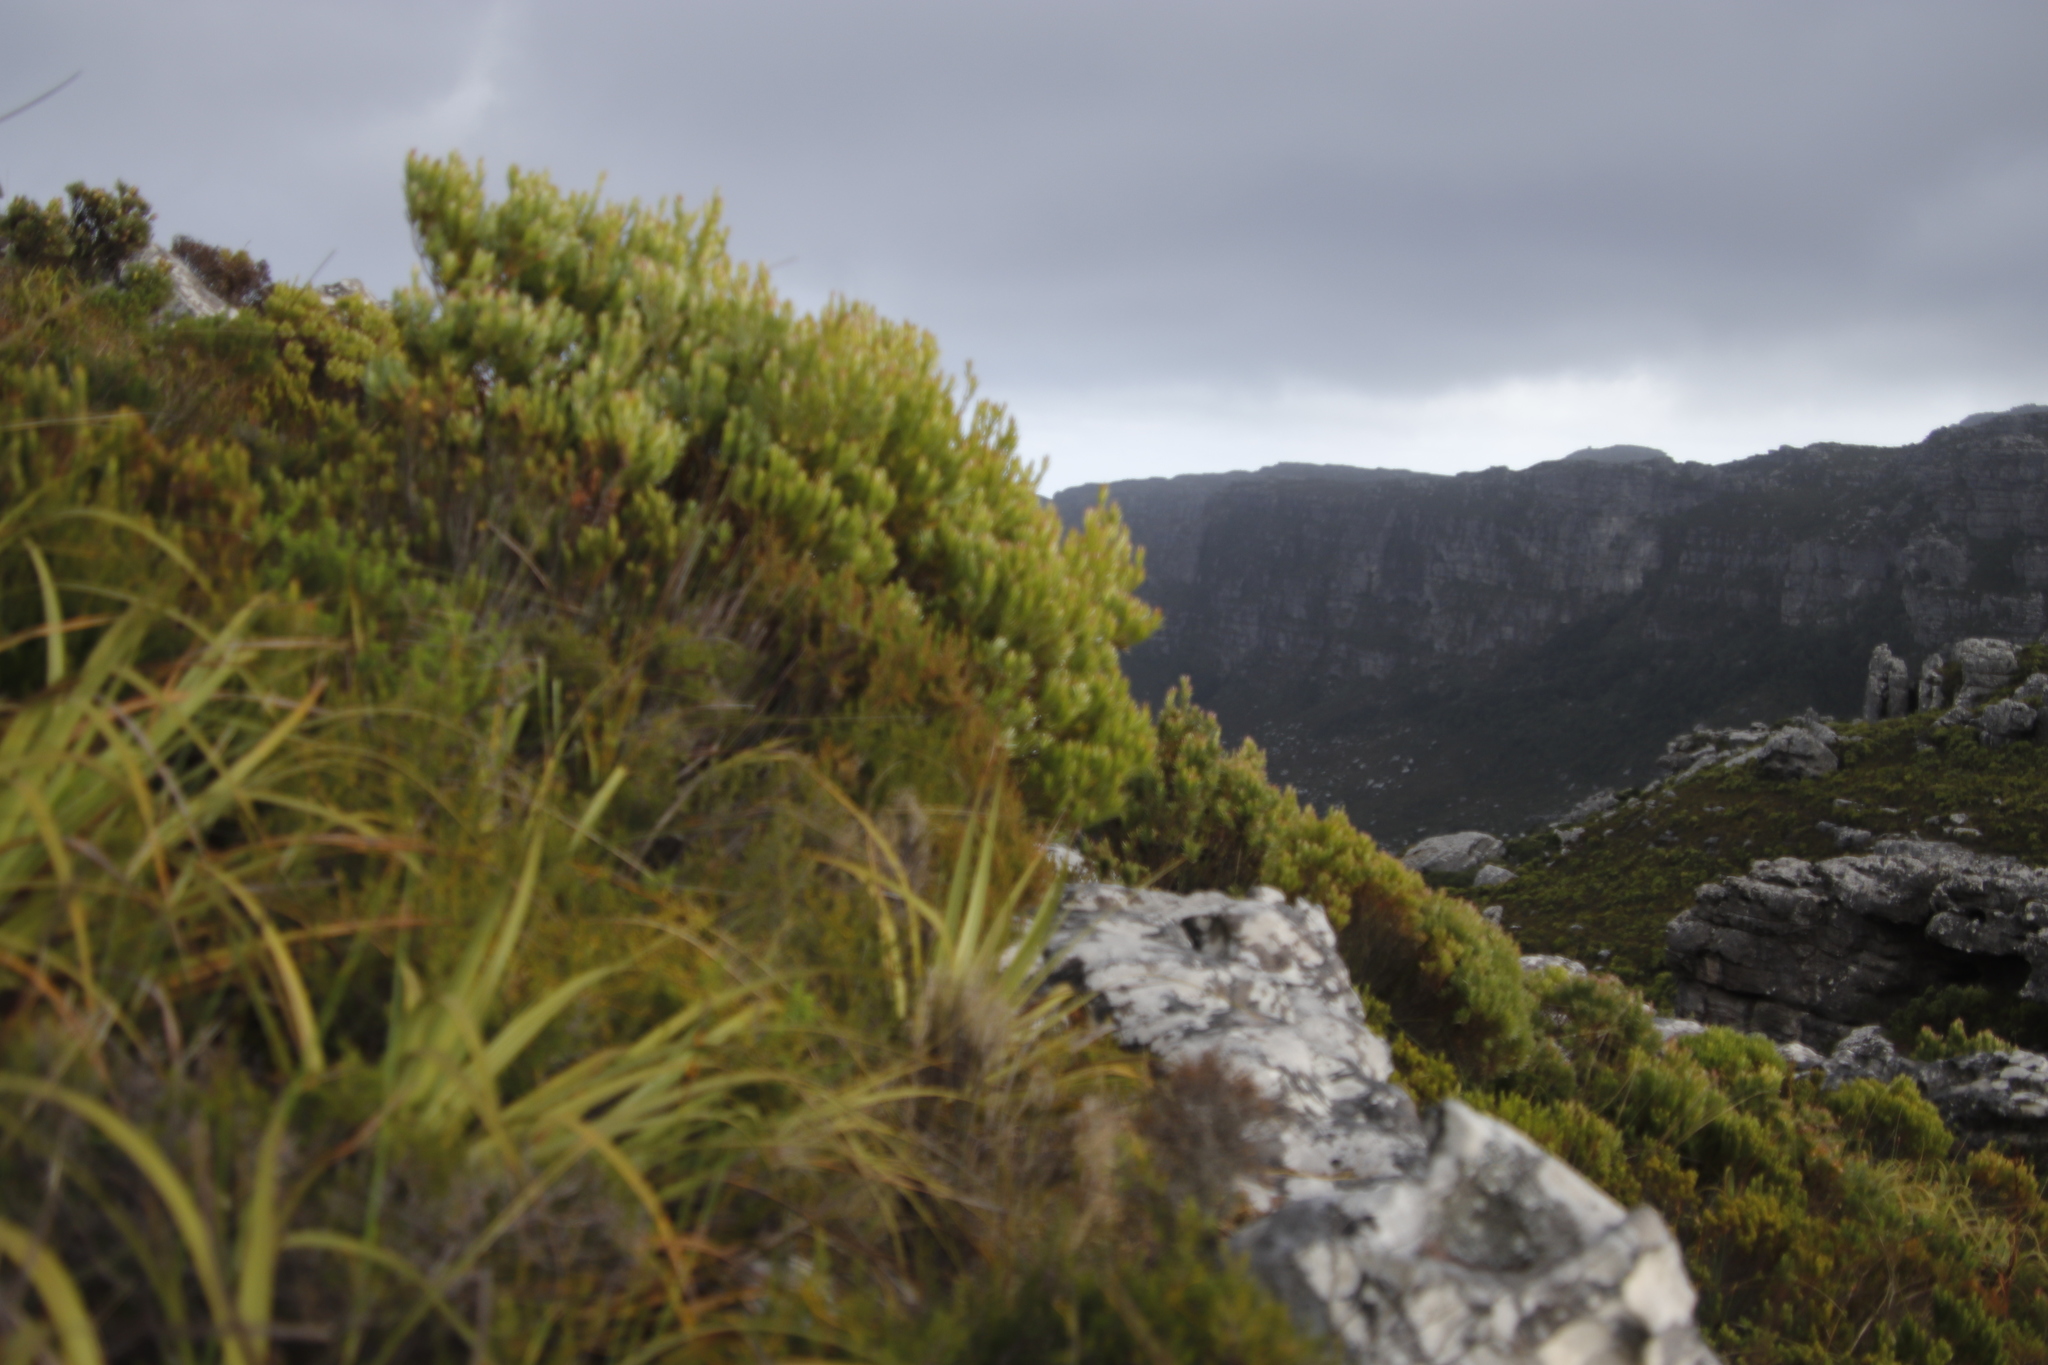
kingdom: Plantae
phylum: Tracheophyta
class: Magnoliopsida
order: Proteales
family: Proteaceae
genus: Leucadendron
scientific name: Leucadendron xanthoconus
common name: Sickle-leaf conebush
